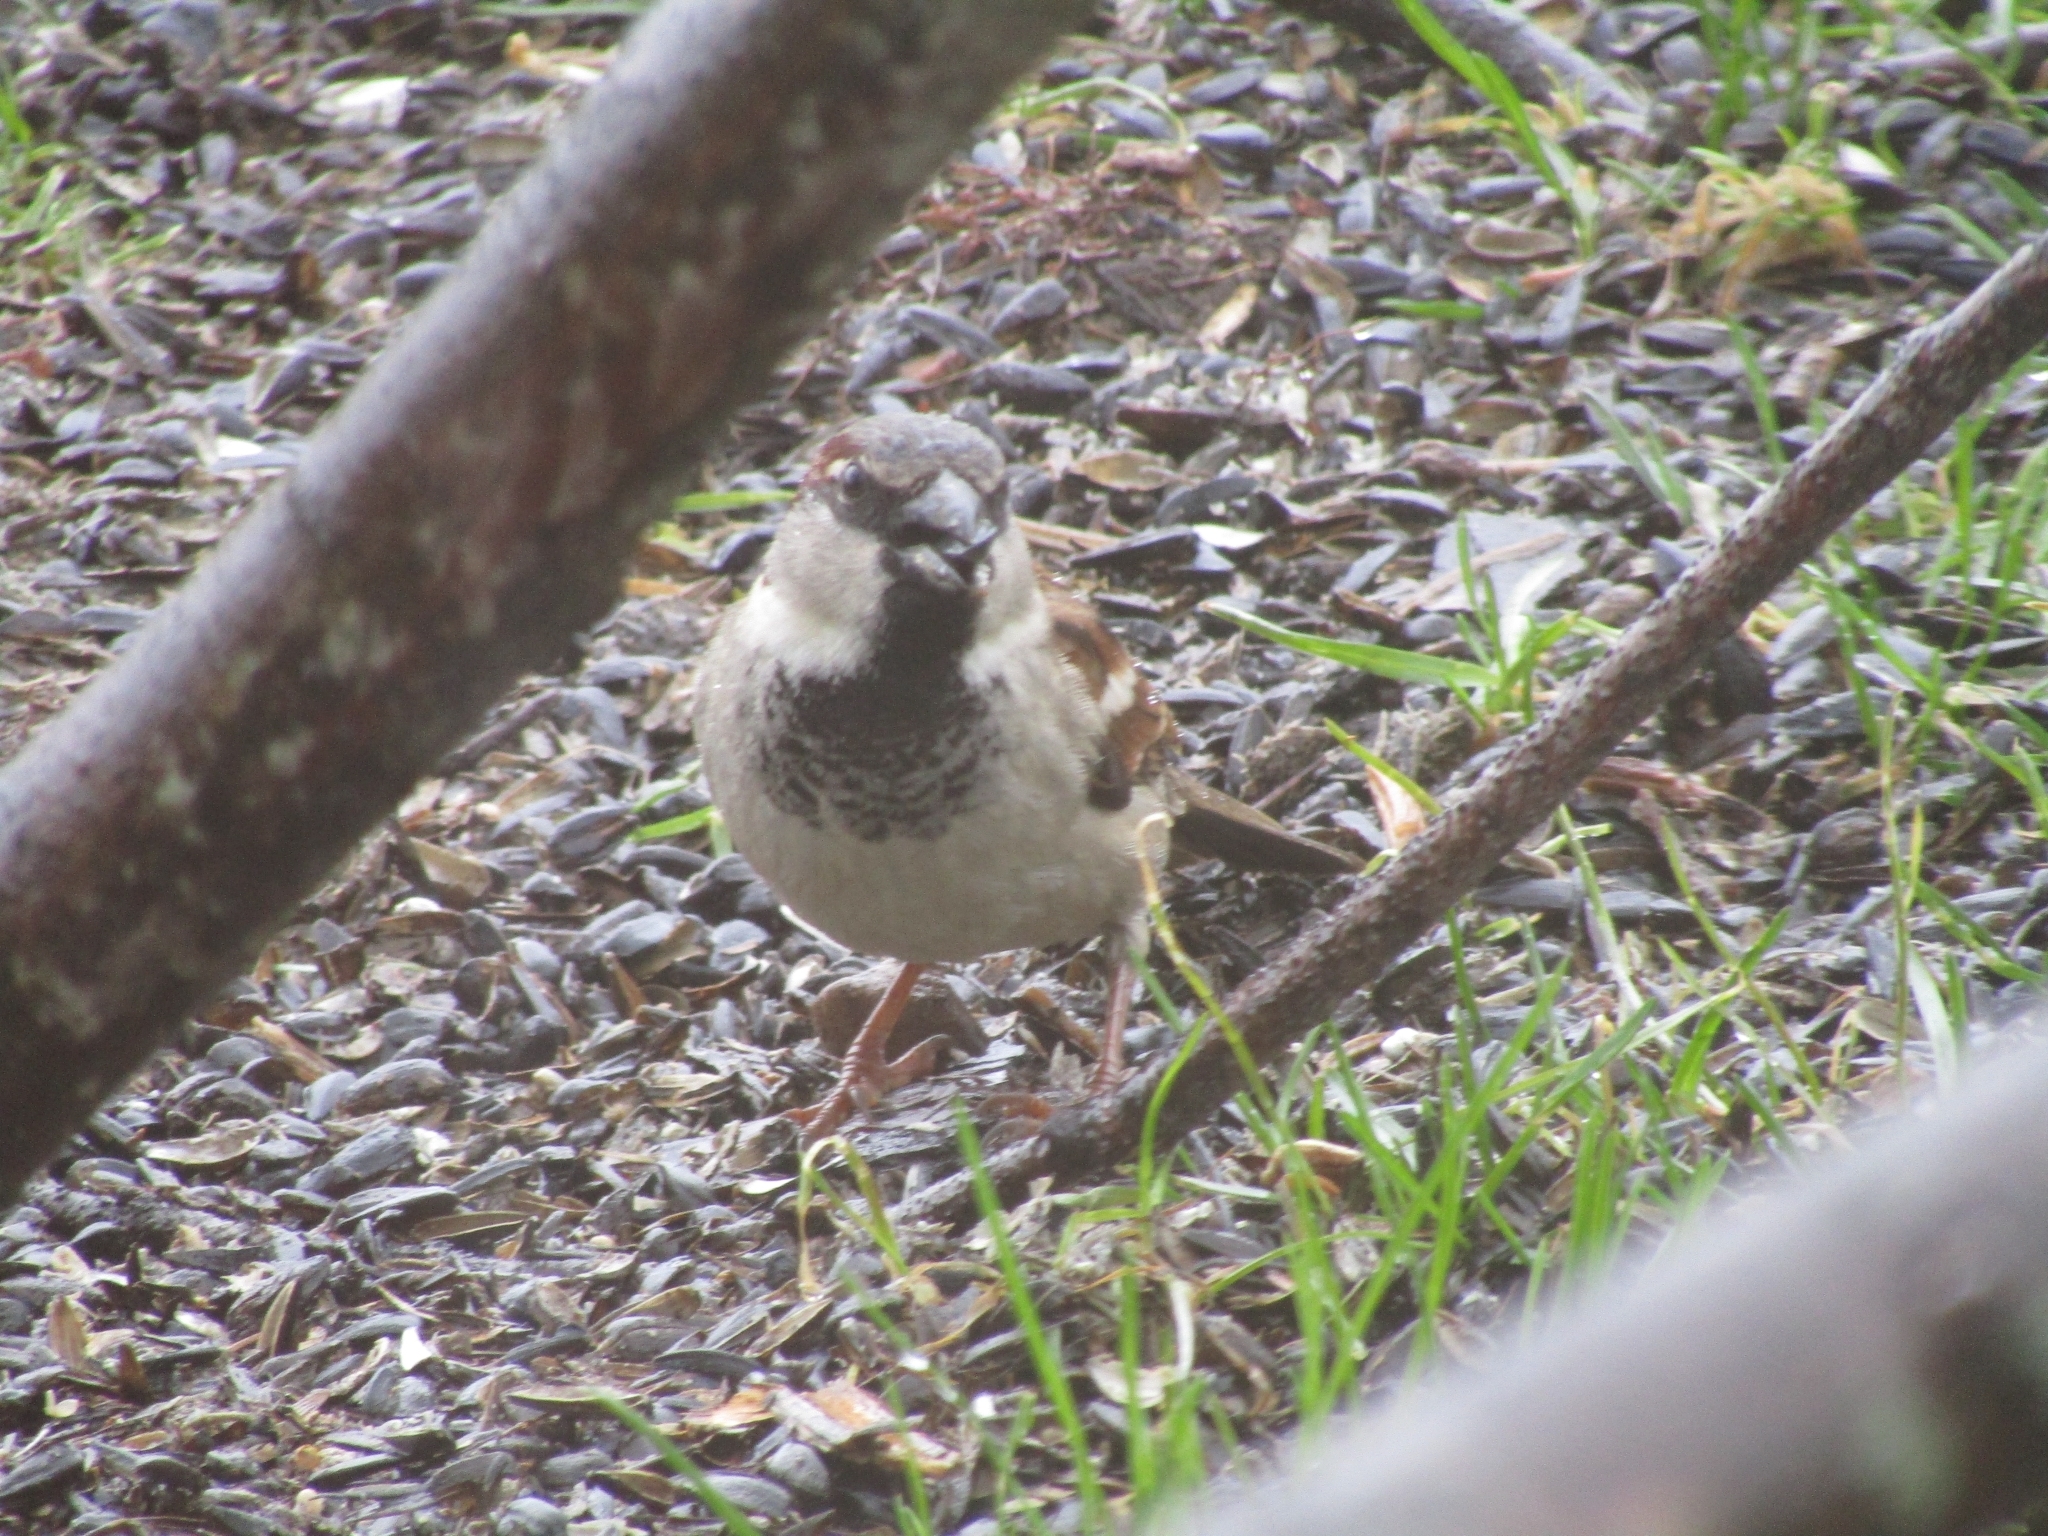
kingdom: Animalia
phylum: Chordata
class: Aves
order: Passeriformes
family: Passeridae
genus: Passer
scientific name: Passer domesticus
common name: House sparrow
